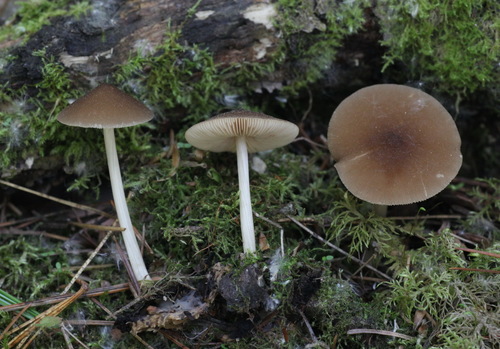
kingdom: Fungi
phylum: Basidiomycota
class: Agaricomycetes
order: Agaricales
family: Pluteaceae
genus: Pluteus
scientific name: Pluteus phlebophorus
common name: Wrinkled shield
